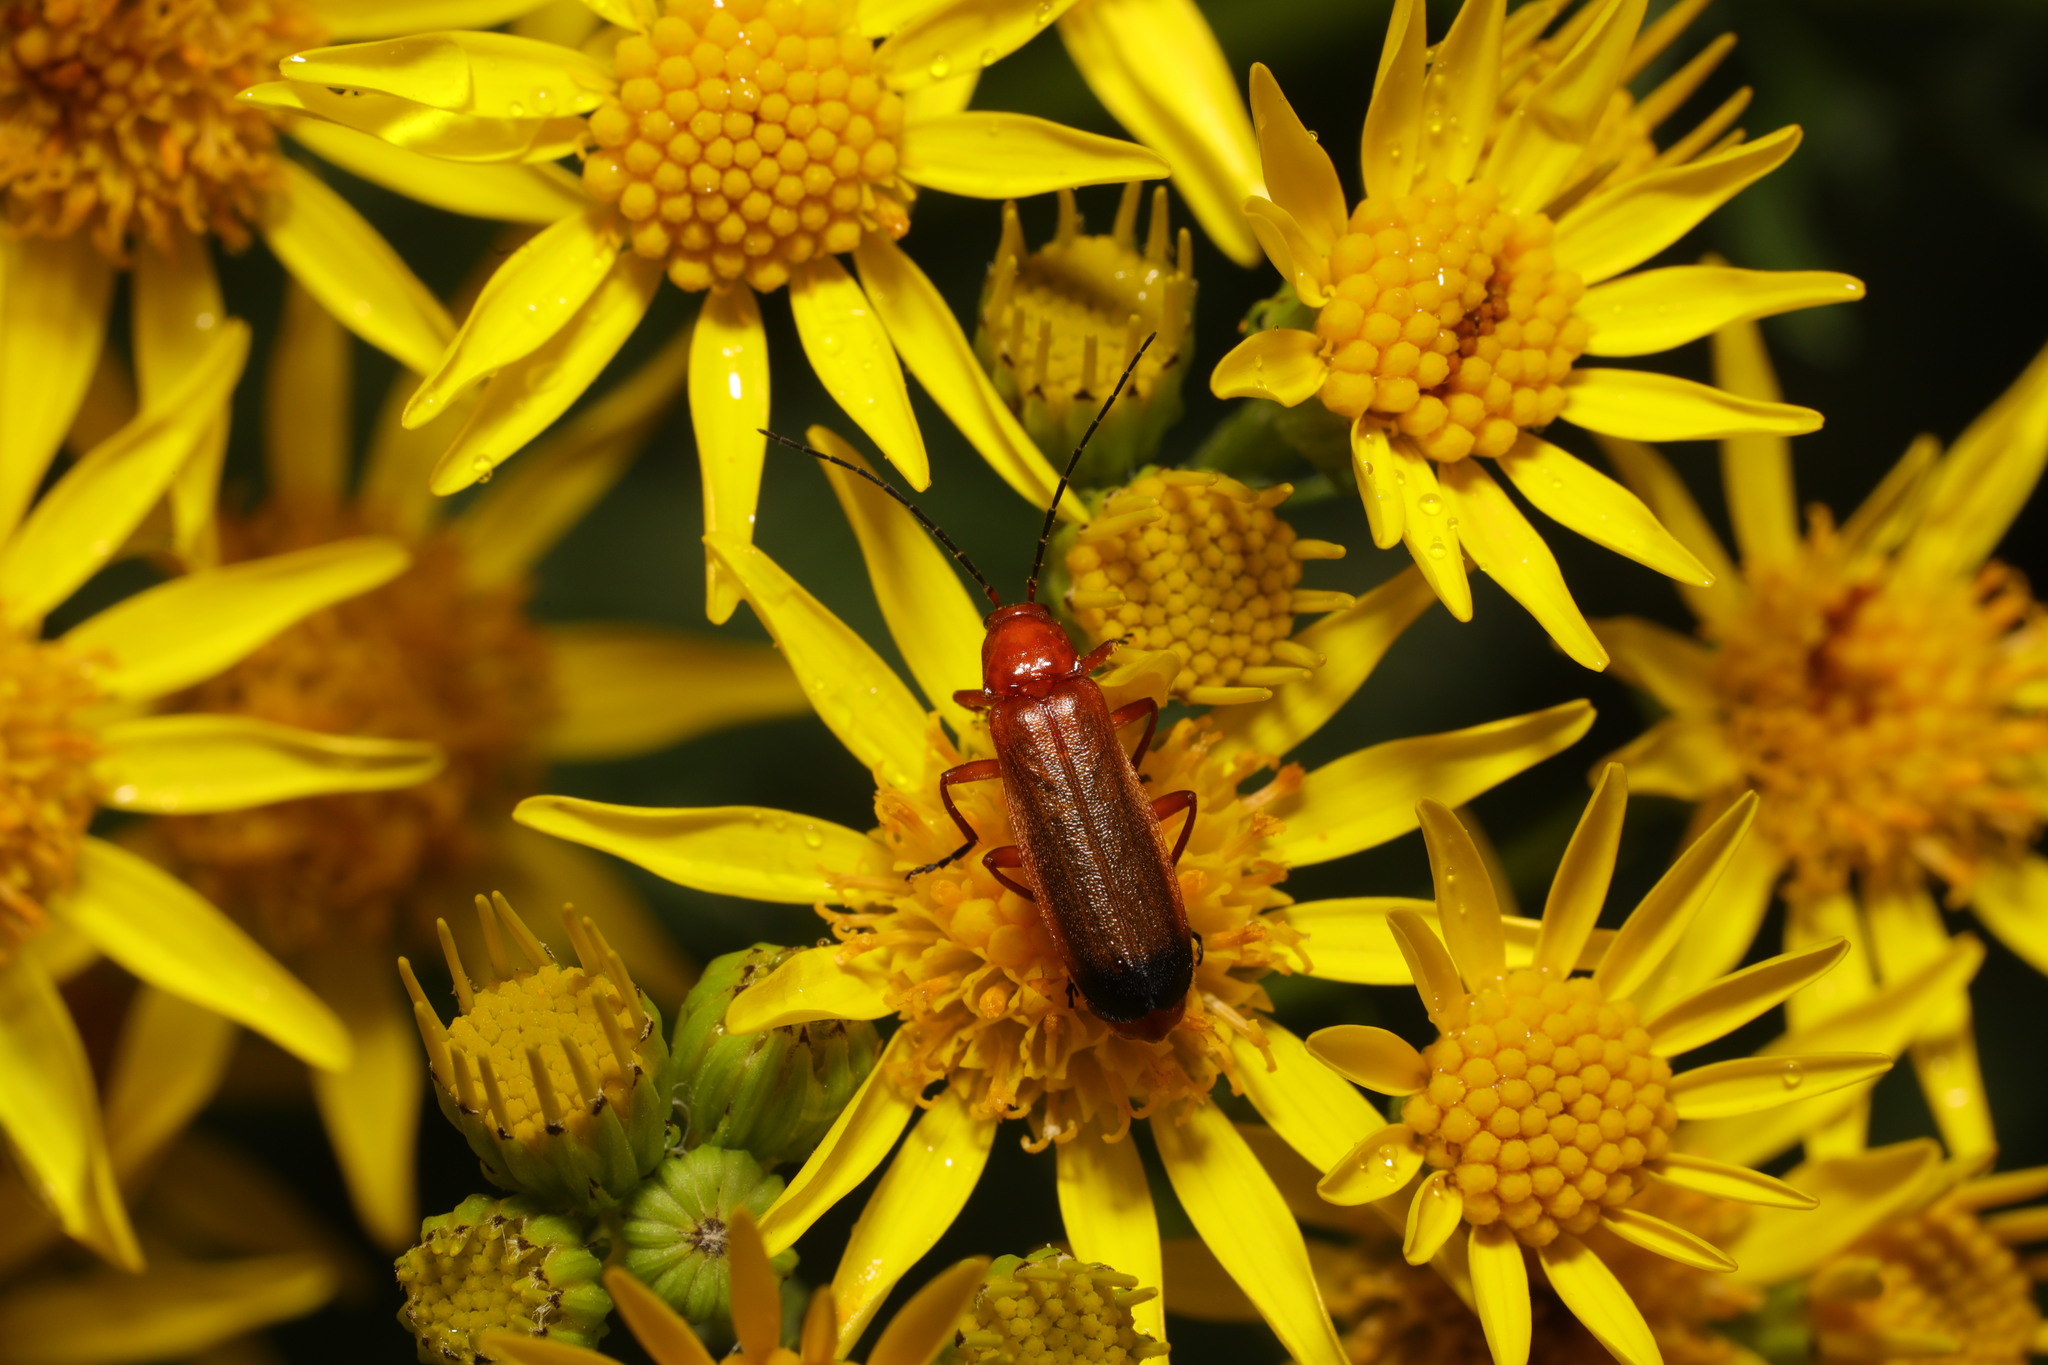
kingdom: Animalia
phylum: Arthropoda
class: Insecta
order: Coleoptera
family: Cantharidae
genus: Rhagonycha
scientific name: Rhagonycha fulva
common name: Common red soldier beetle
